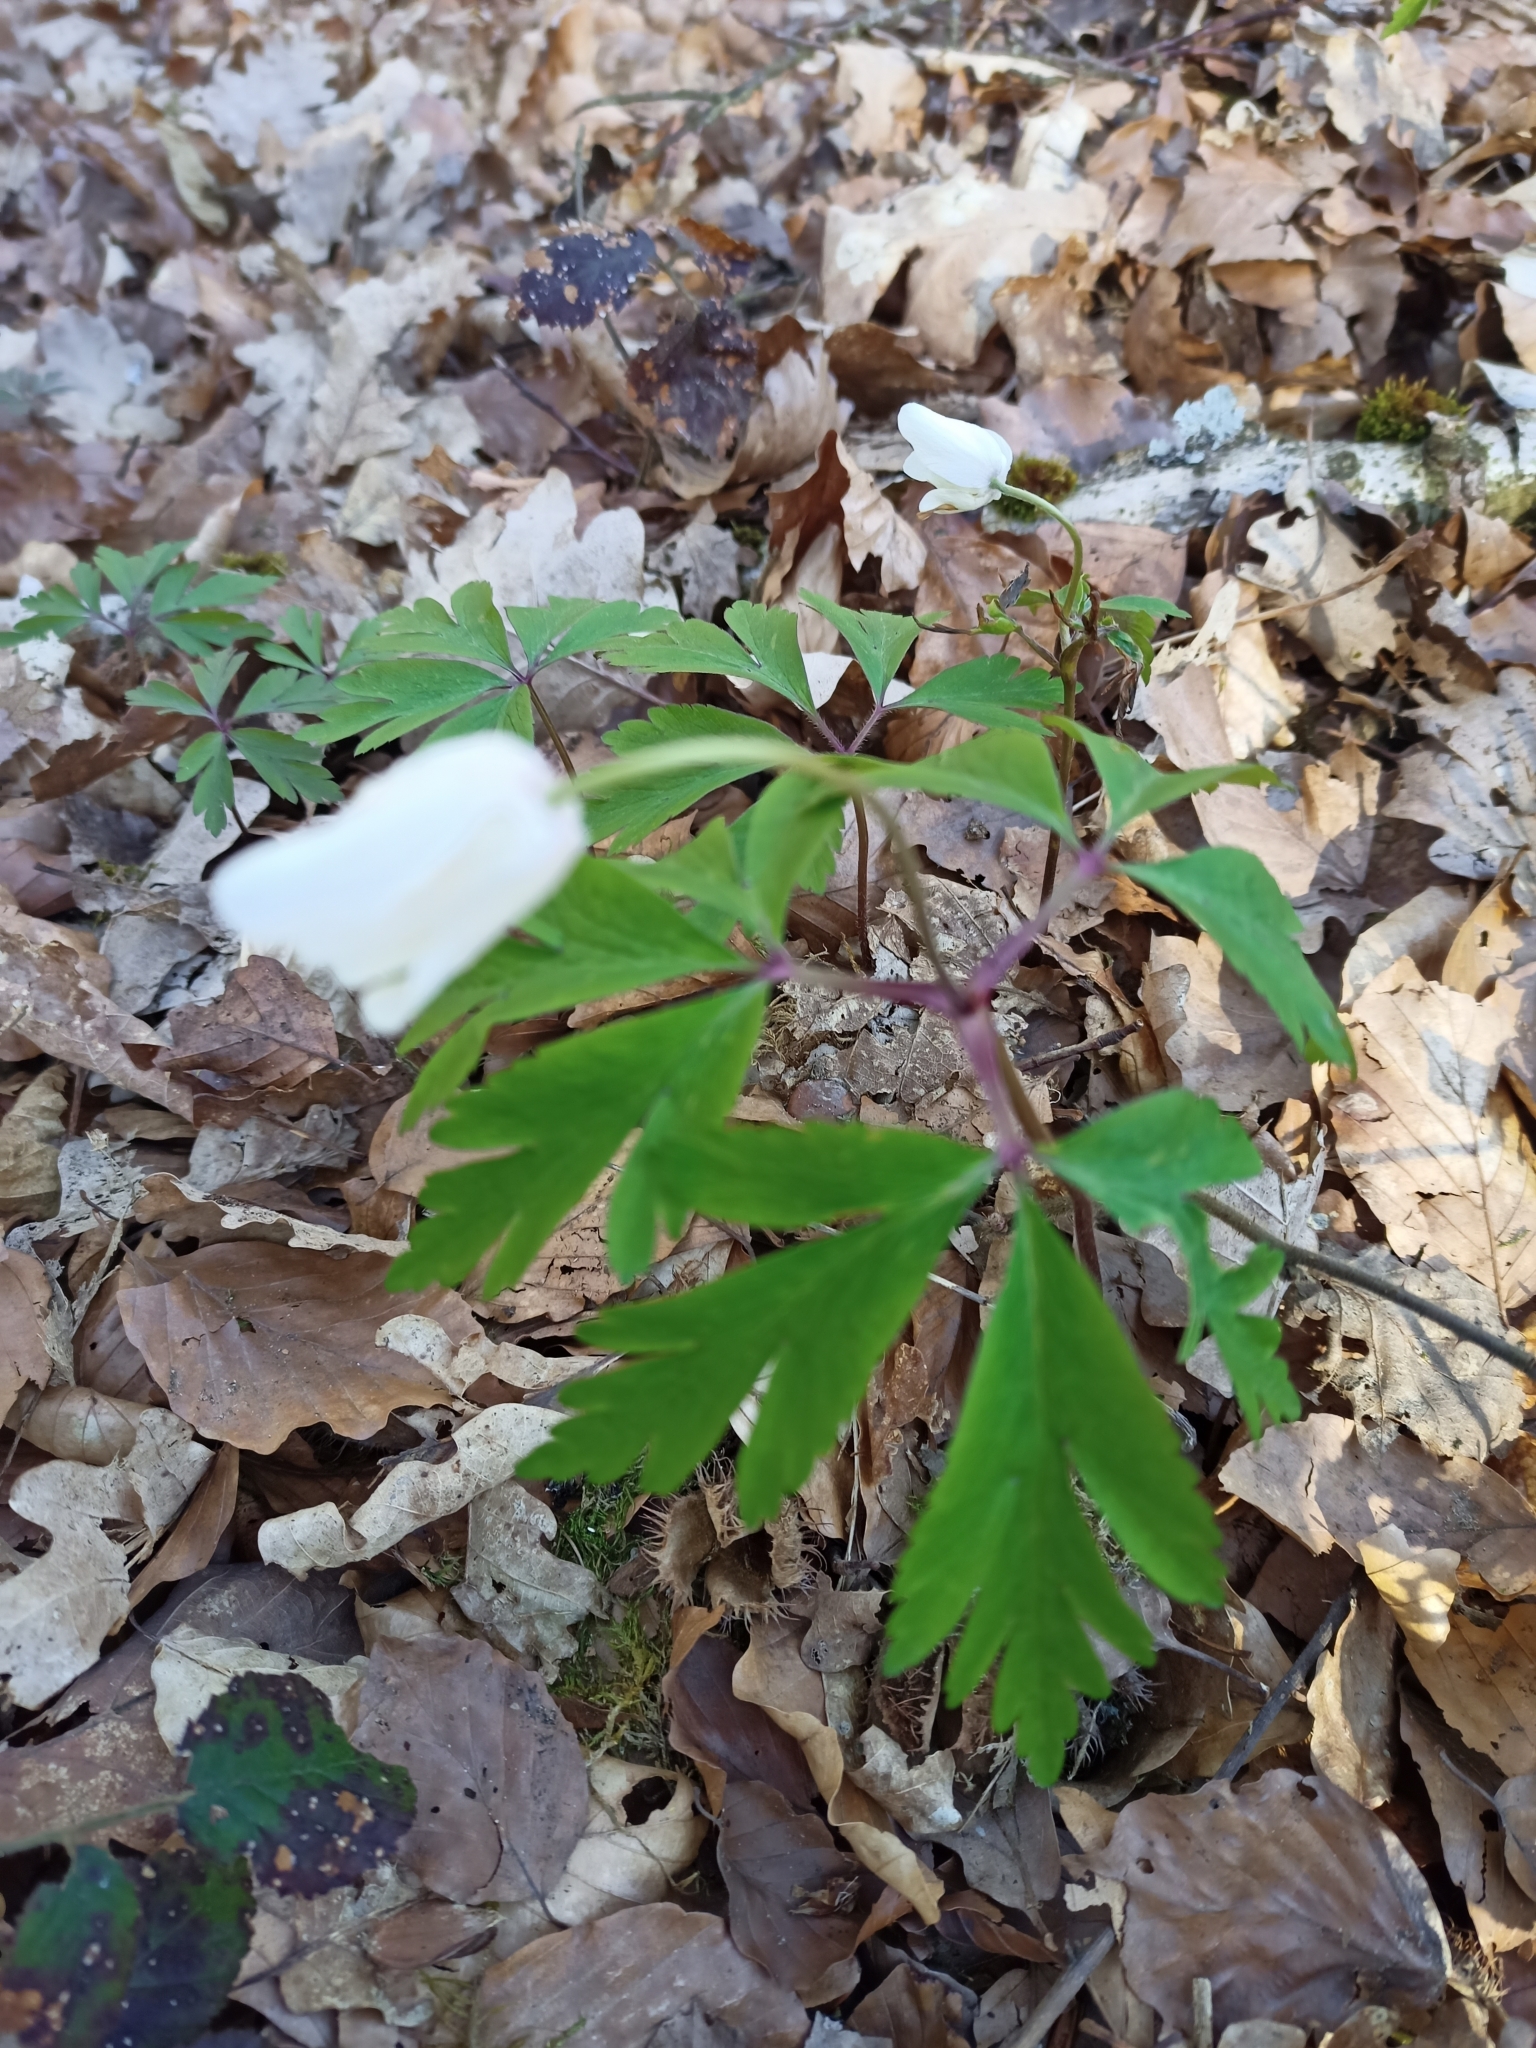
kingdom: Plantae
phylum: Tracheophyta
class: Magnoliopsida
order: Ranunculales
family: Ranunculaceae
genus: Anemone
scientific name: Anemone nemorosa
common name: Wood anemone
